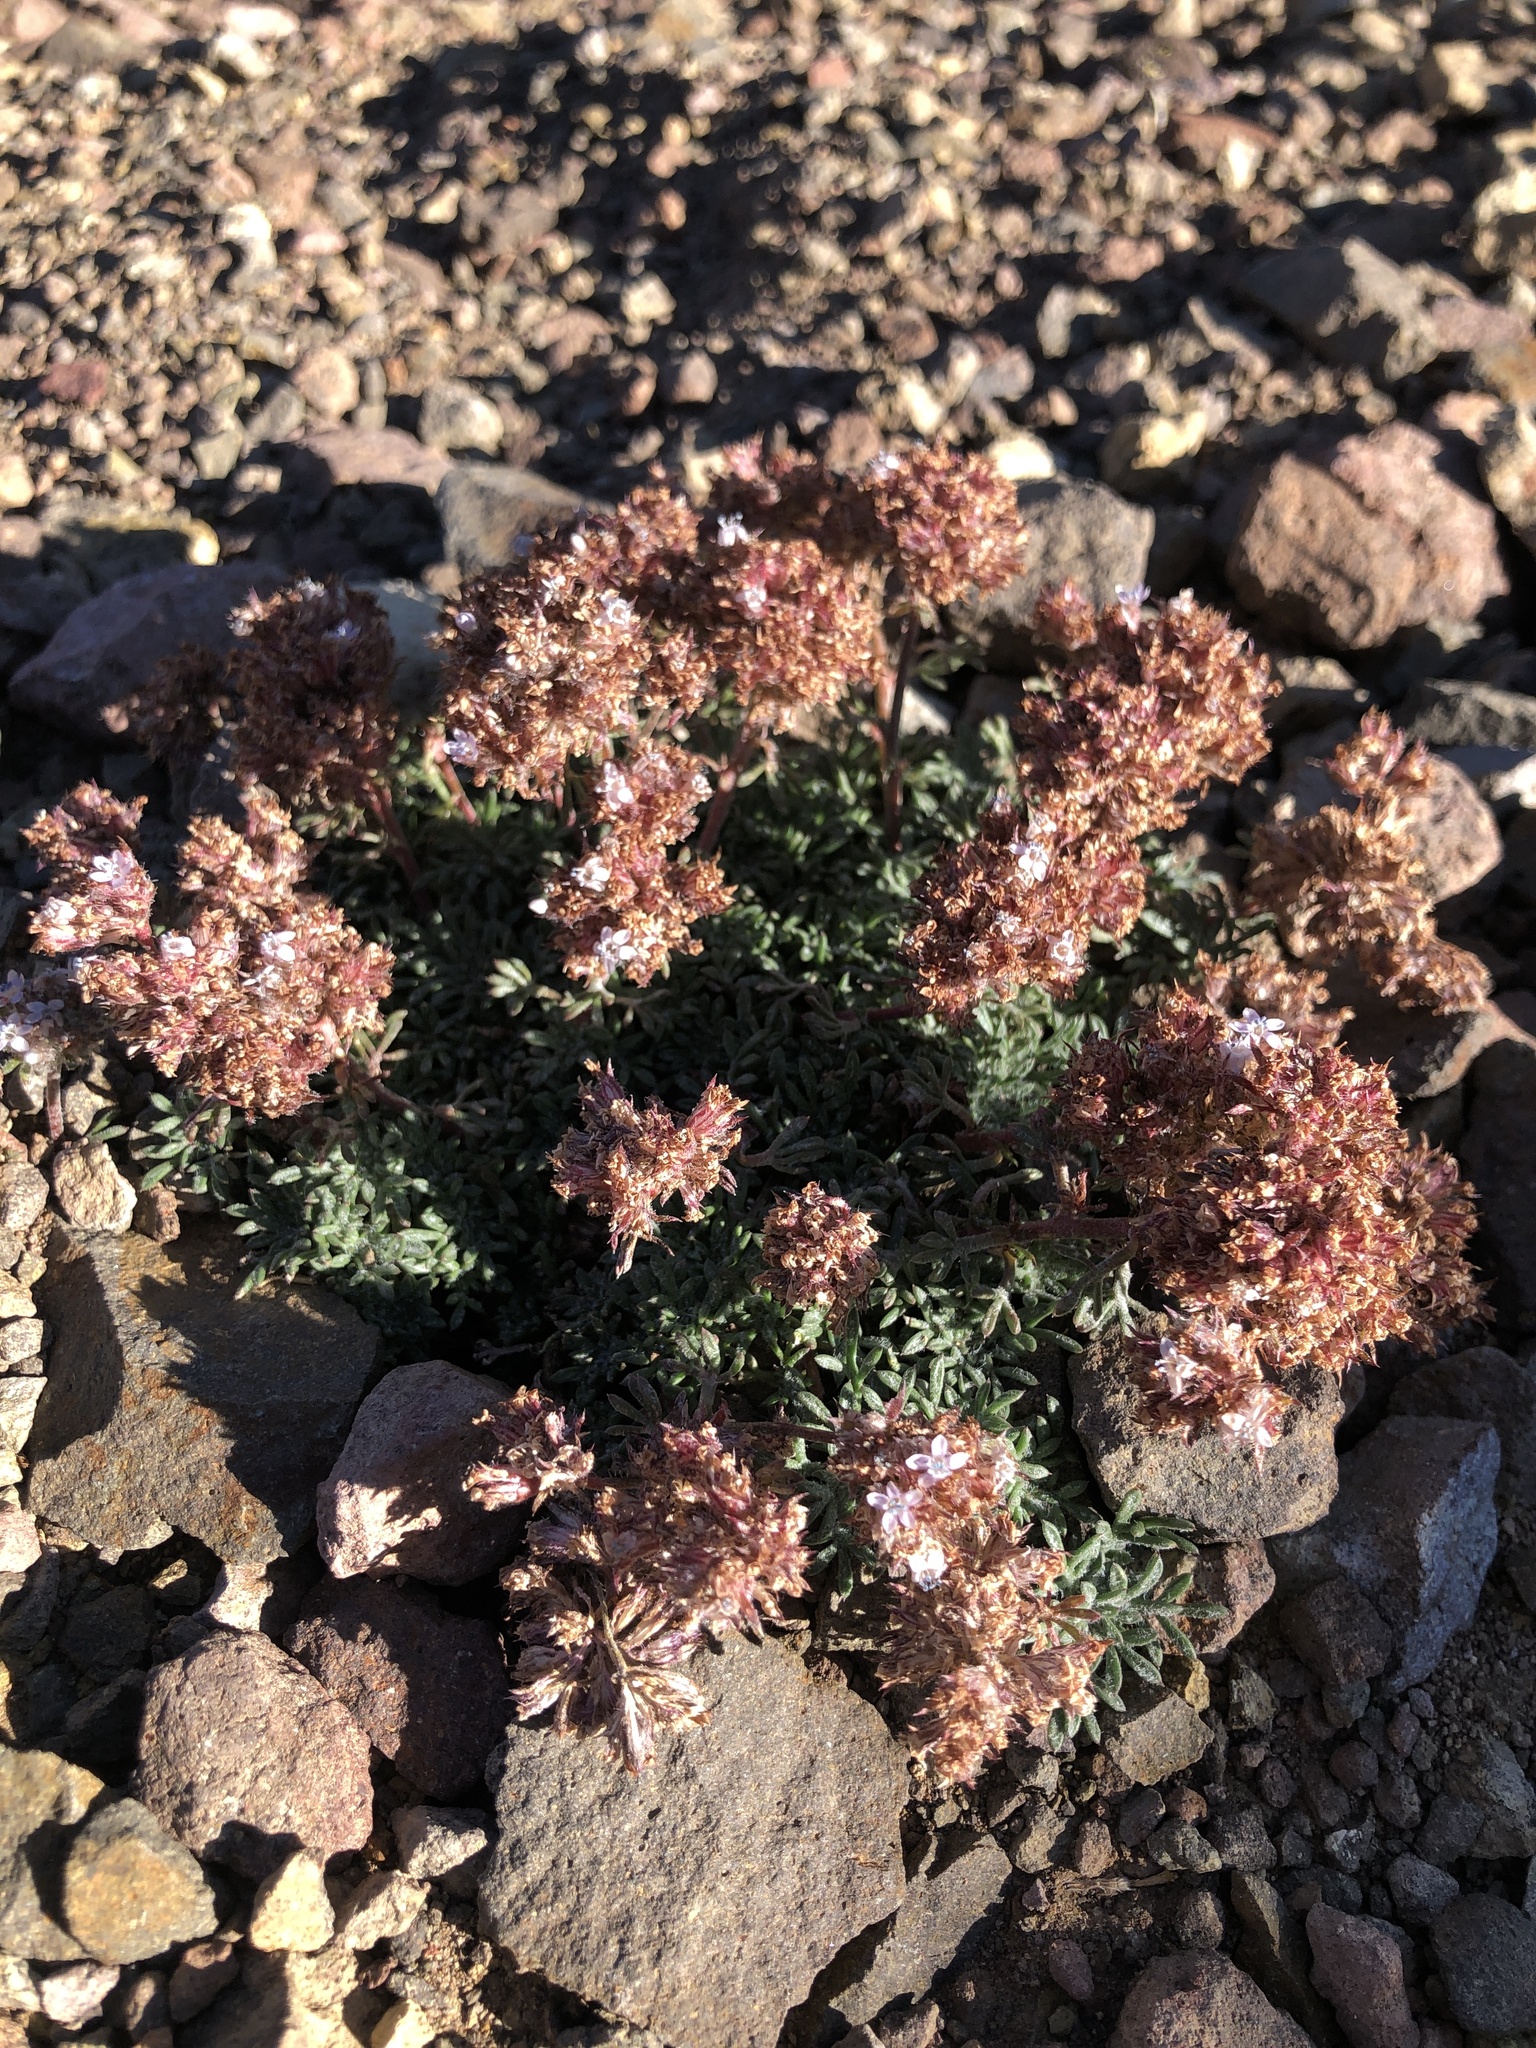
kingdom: Plantae
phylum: Tracheophyta
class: Magnoliopsida
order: Ericales
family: Polemoniaceae
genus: Ipomopsis
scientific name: Ipomopsis congesta
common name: Ball-head gilia
